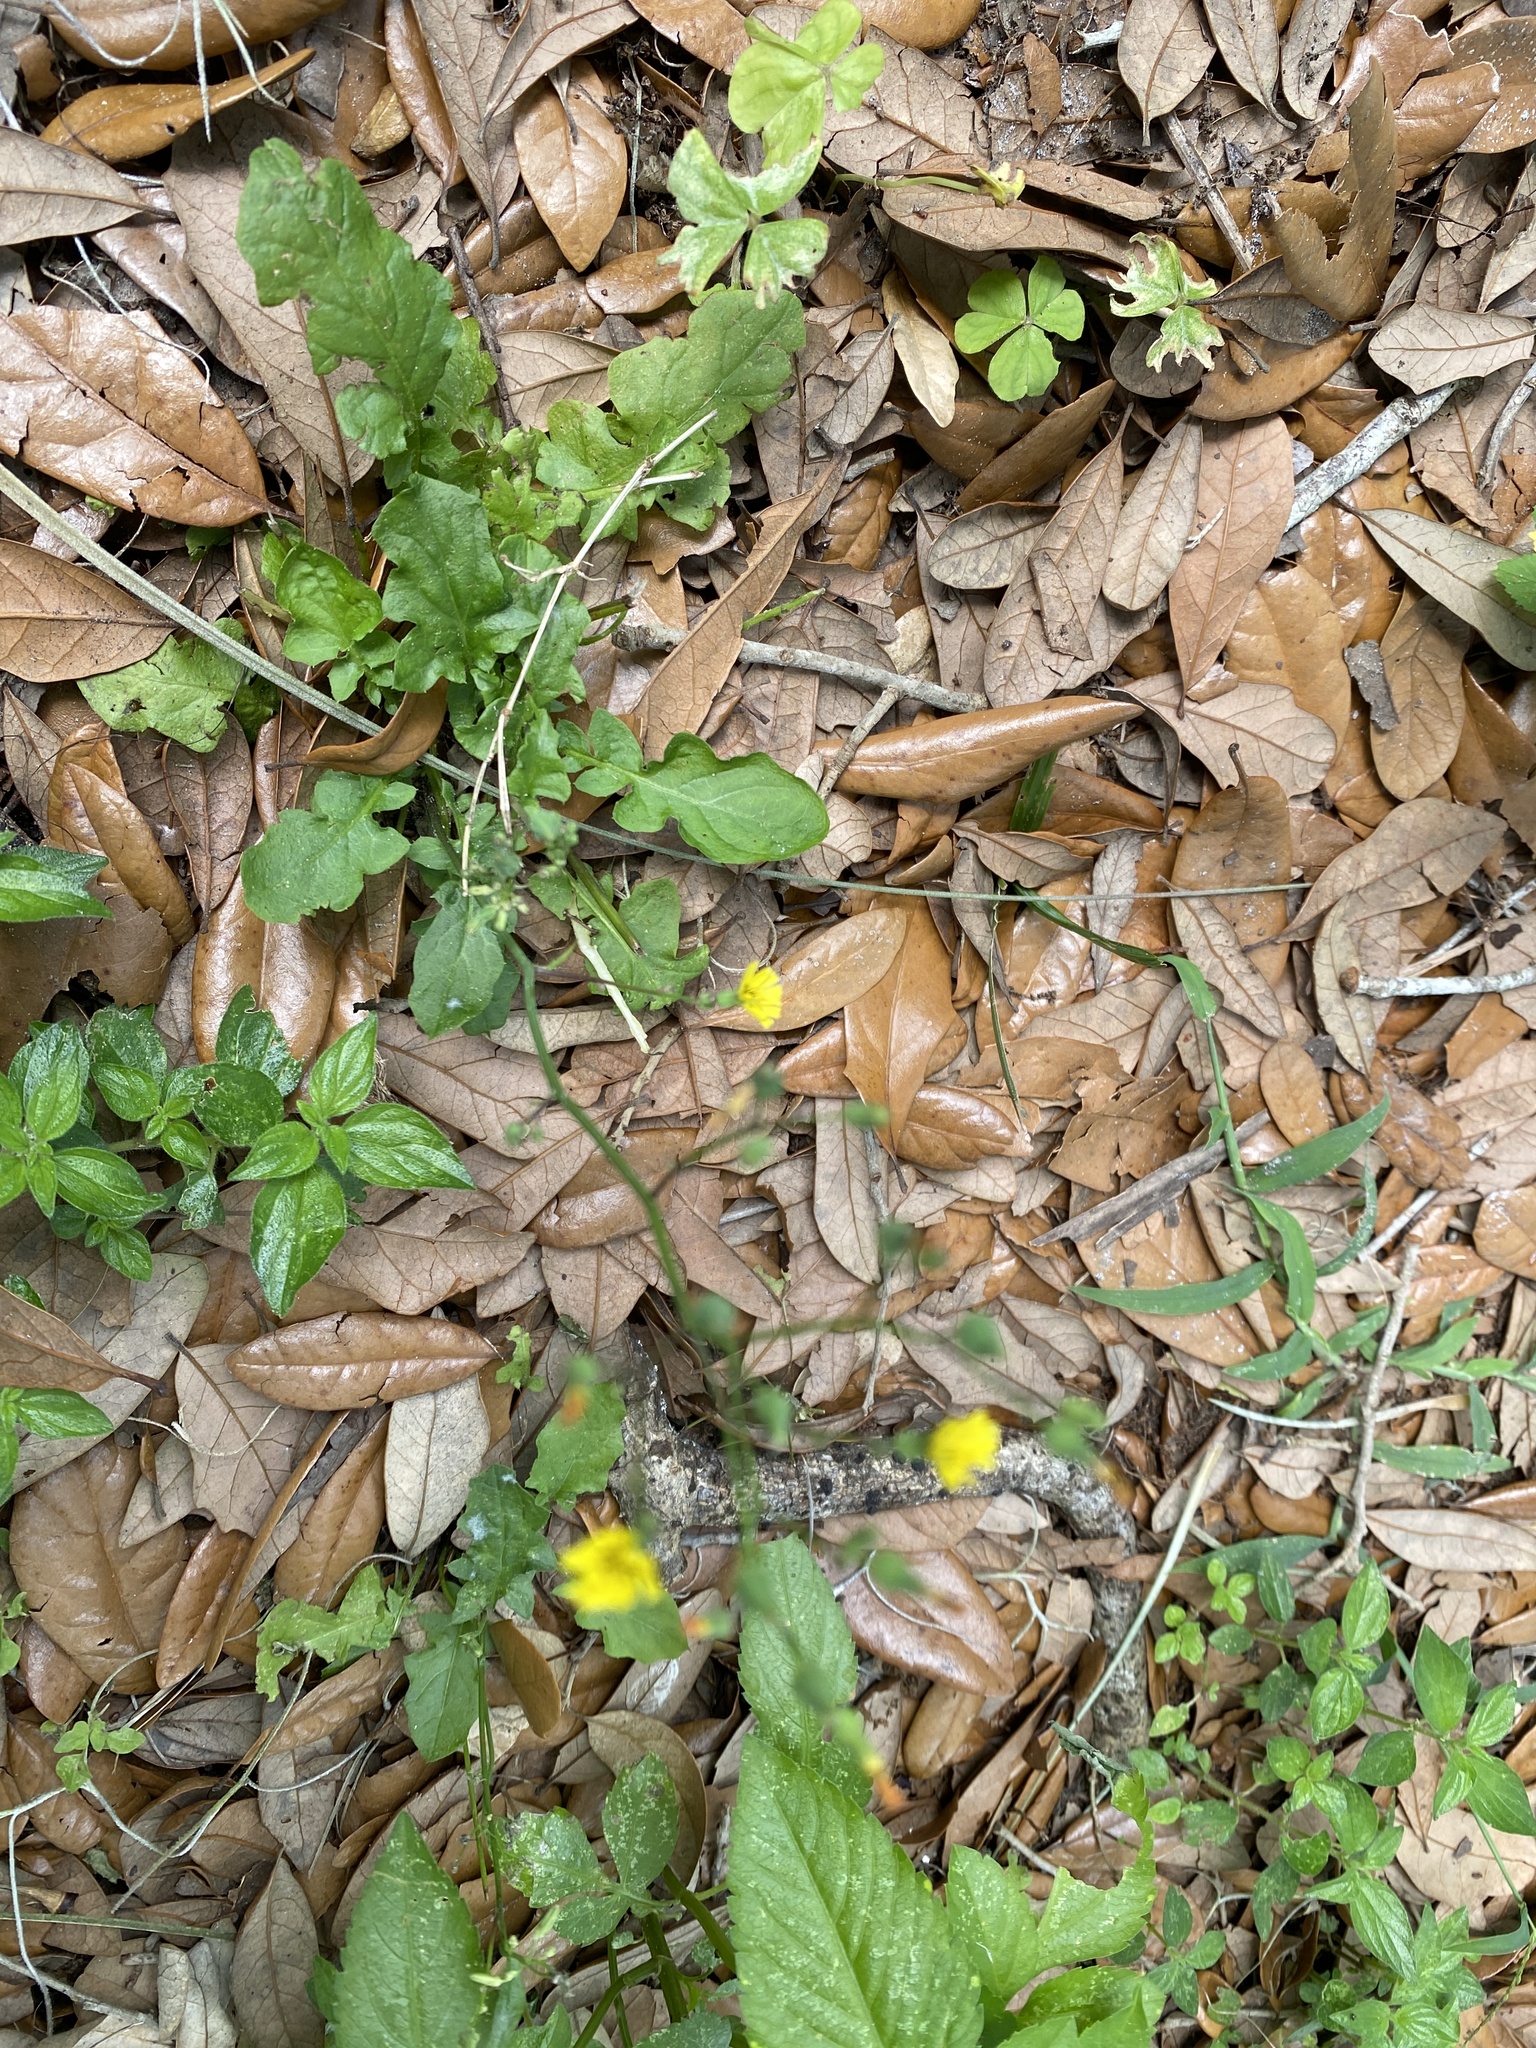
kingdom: Plantae
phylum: Tracheophyta
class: Magnoliopsida
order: Asterales
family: Asteraceae
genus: Youngia
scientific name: Youngia japonica
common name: Oriental false hawksbeard
